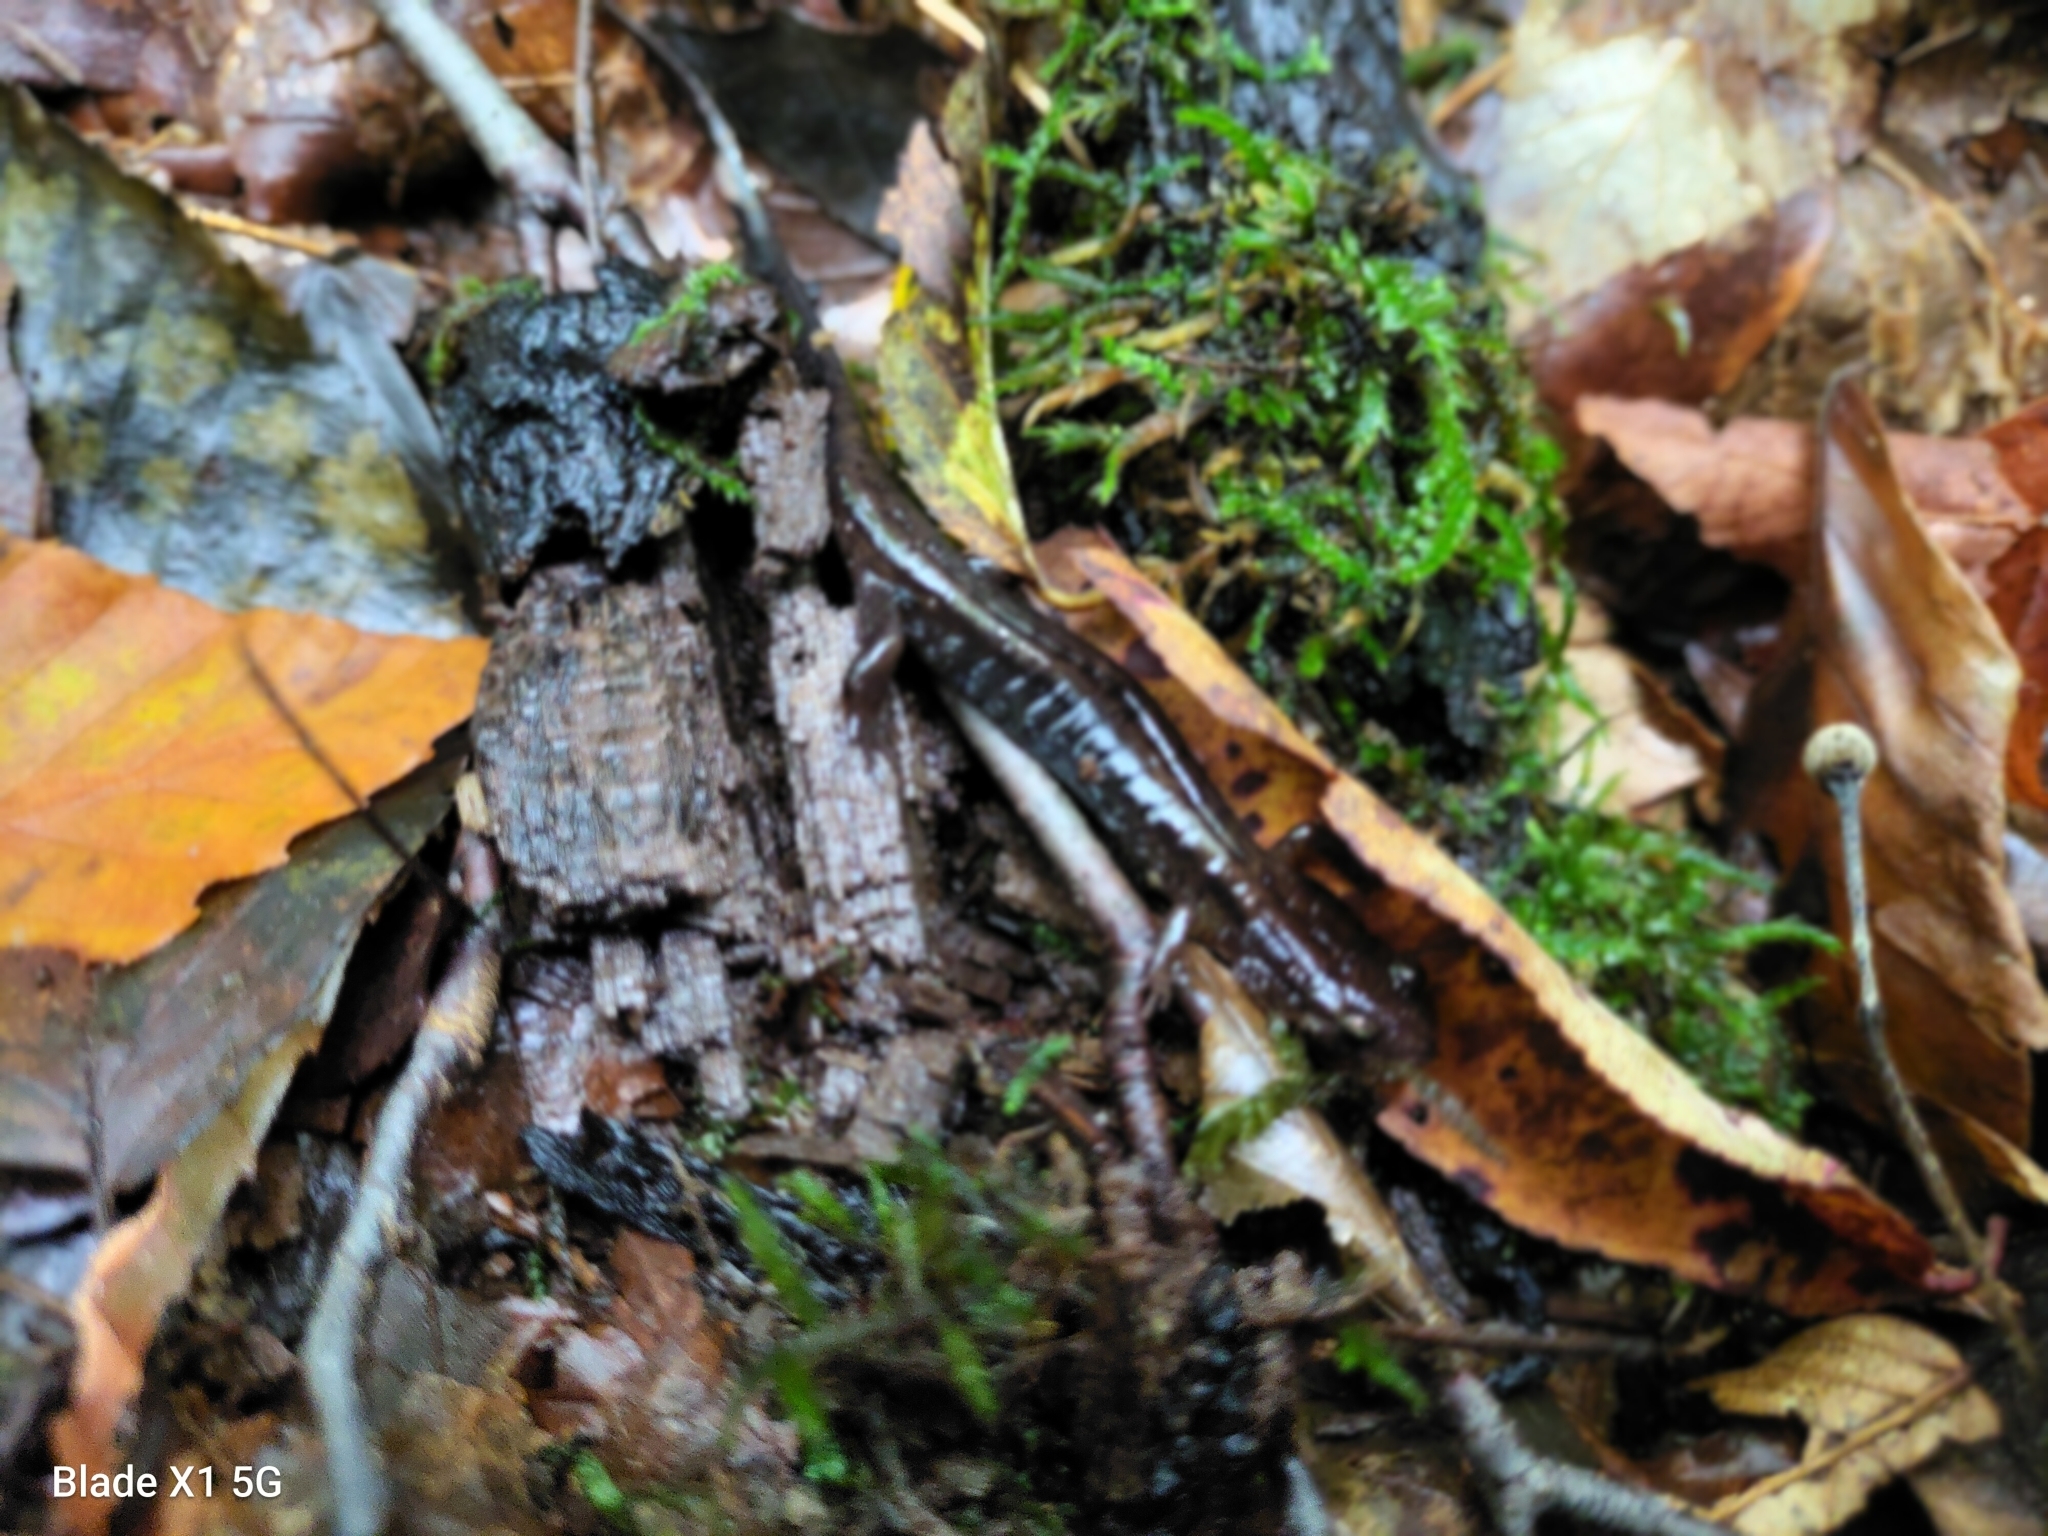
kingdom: Animalia
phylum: Chordata
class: Amphibia
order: Caudata
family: Plethodontidae
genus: Desmognathus
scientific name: Desmognathus ochrophaeus
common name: Allegheny mountain dusky salamander
